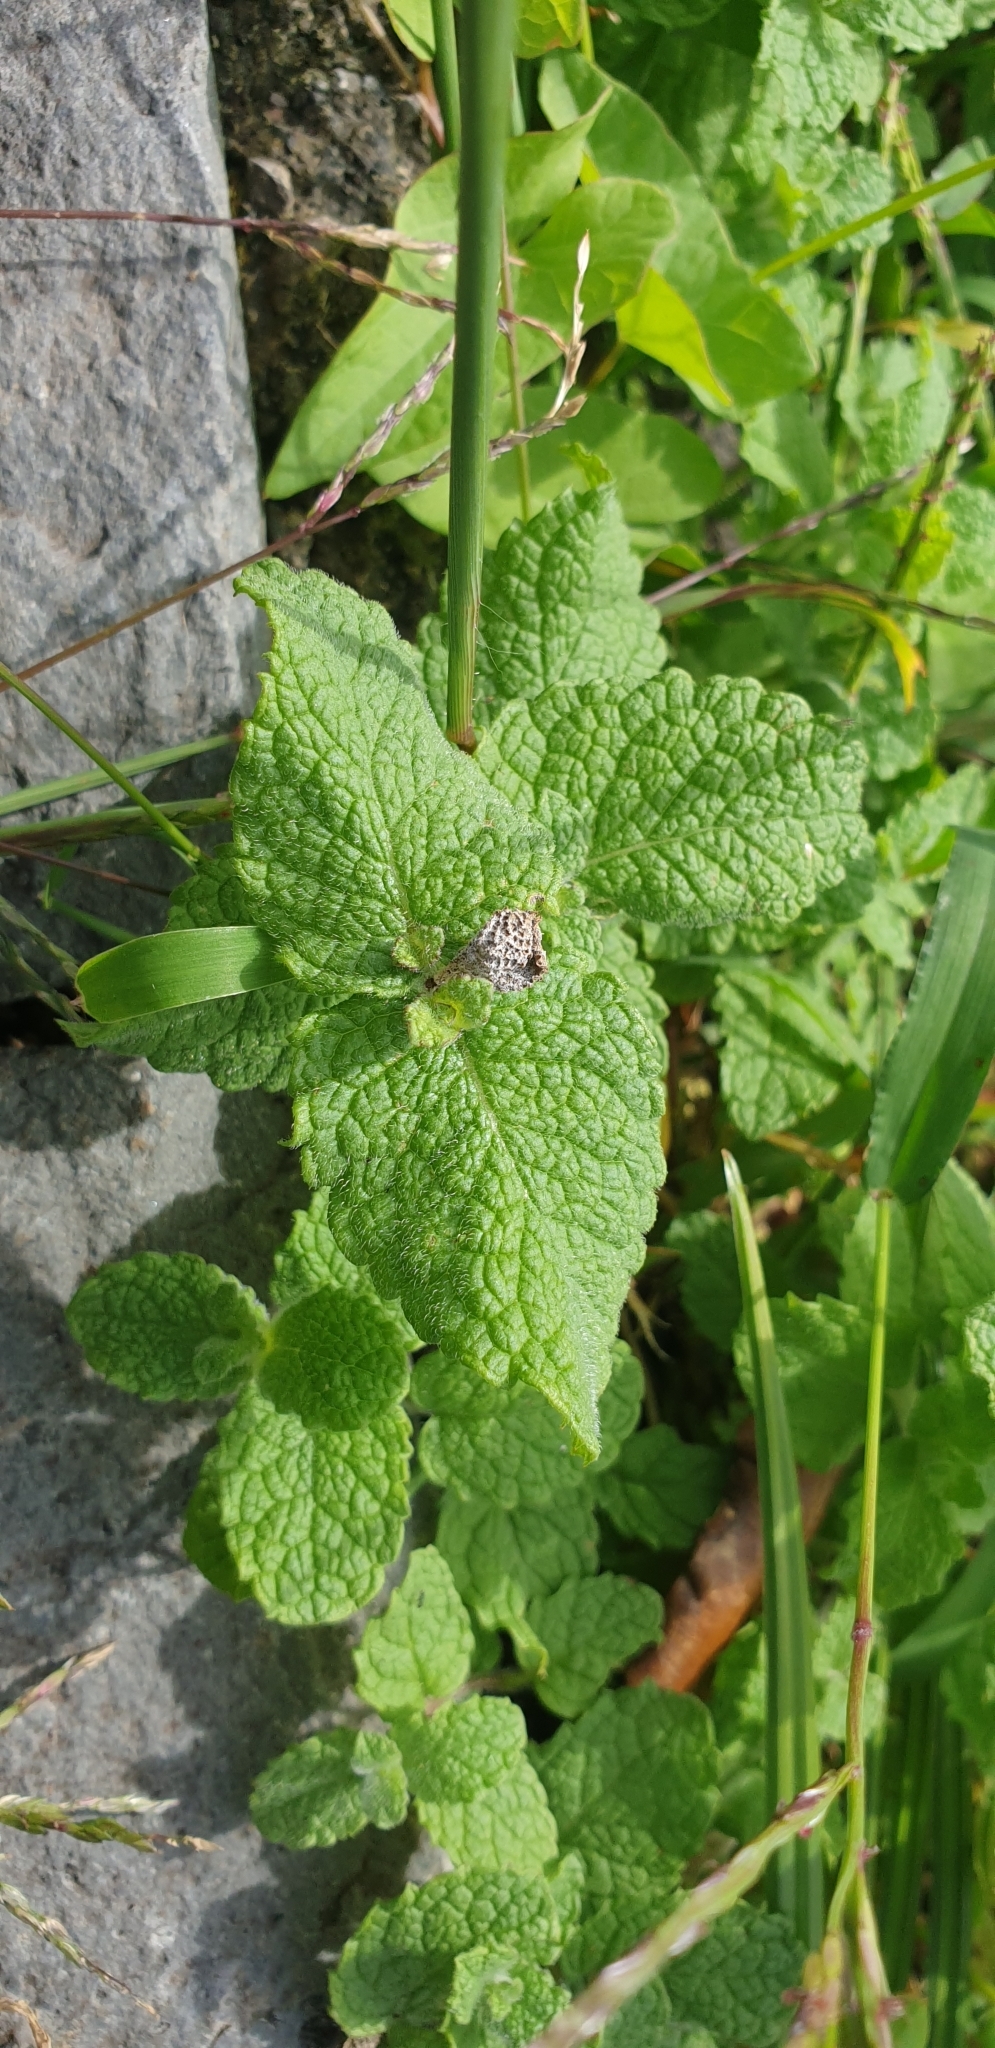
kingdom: Plantae
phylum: Tracheophyta
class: Magnoliopsida
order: Lamiales
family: Lamiaceae
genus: Mentha
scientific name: Mentha suaveolens
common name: Apple mint
